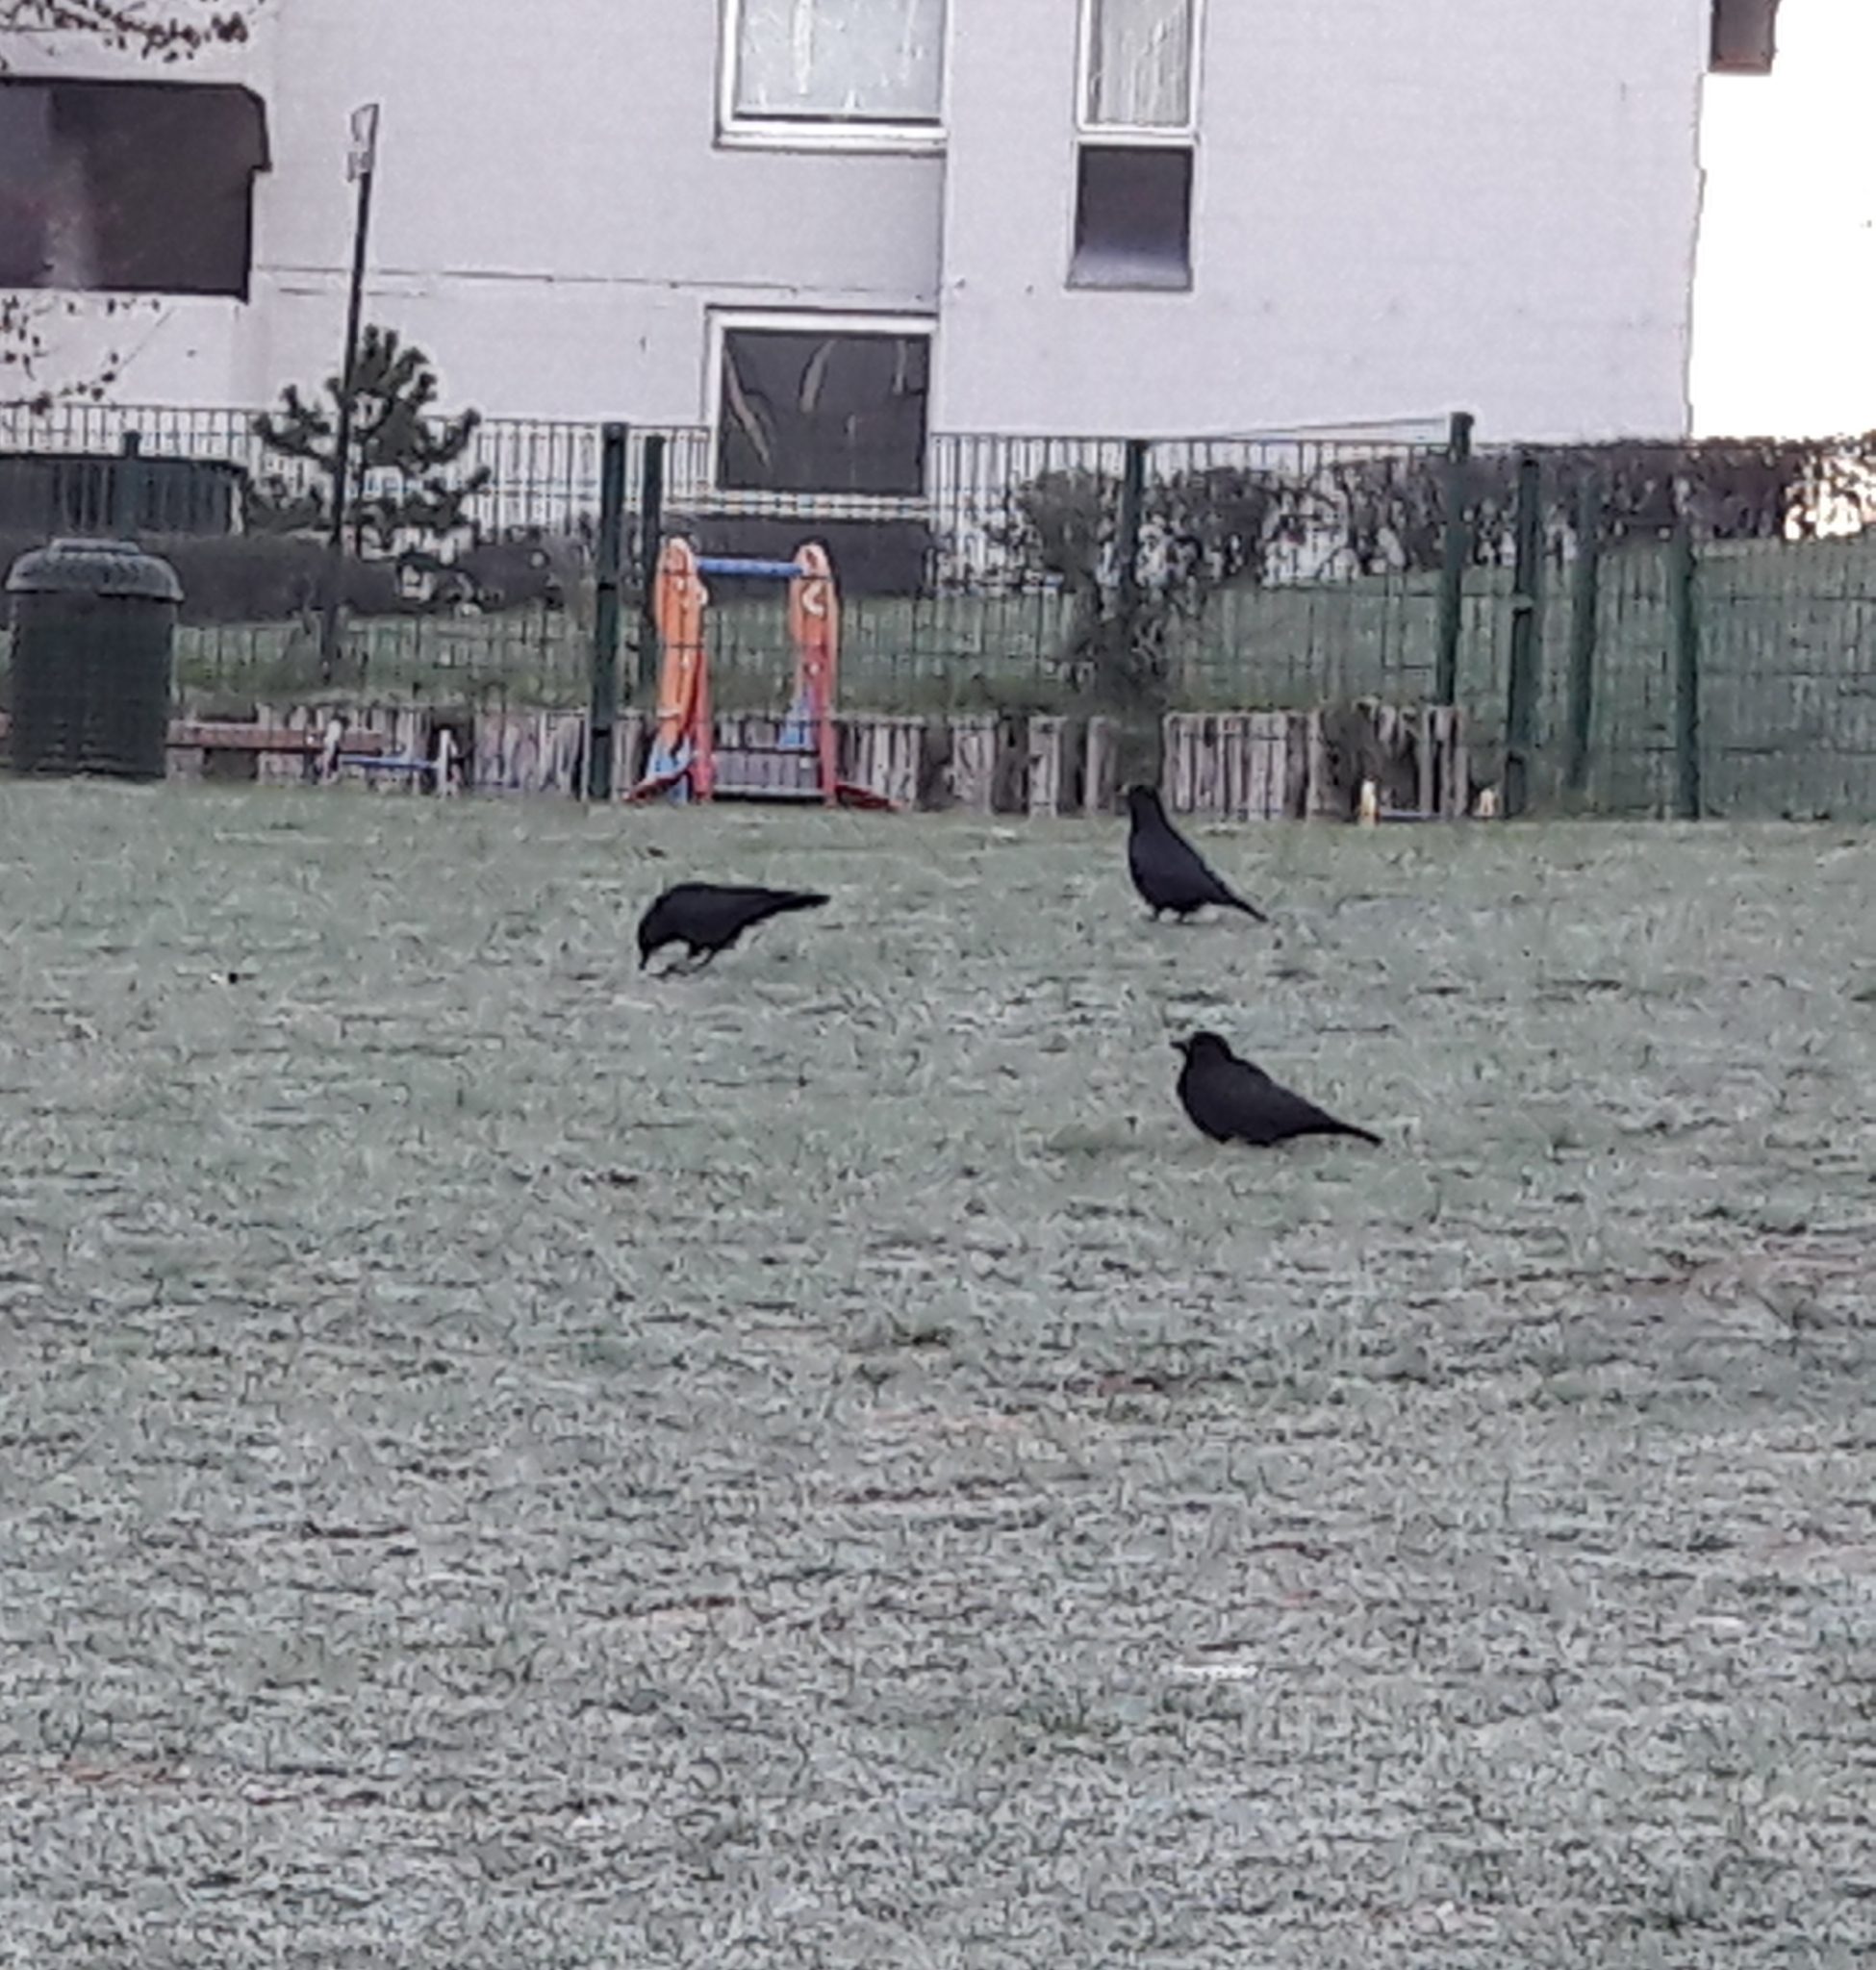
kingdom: Animalia
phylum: Chordata
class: Aves
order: Passeriformes
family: Corvidae
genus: Corvus
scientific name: Corvus corone
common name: Carrion crow
